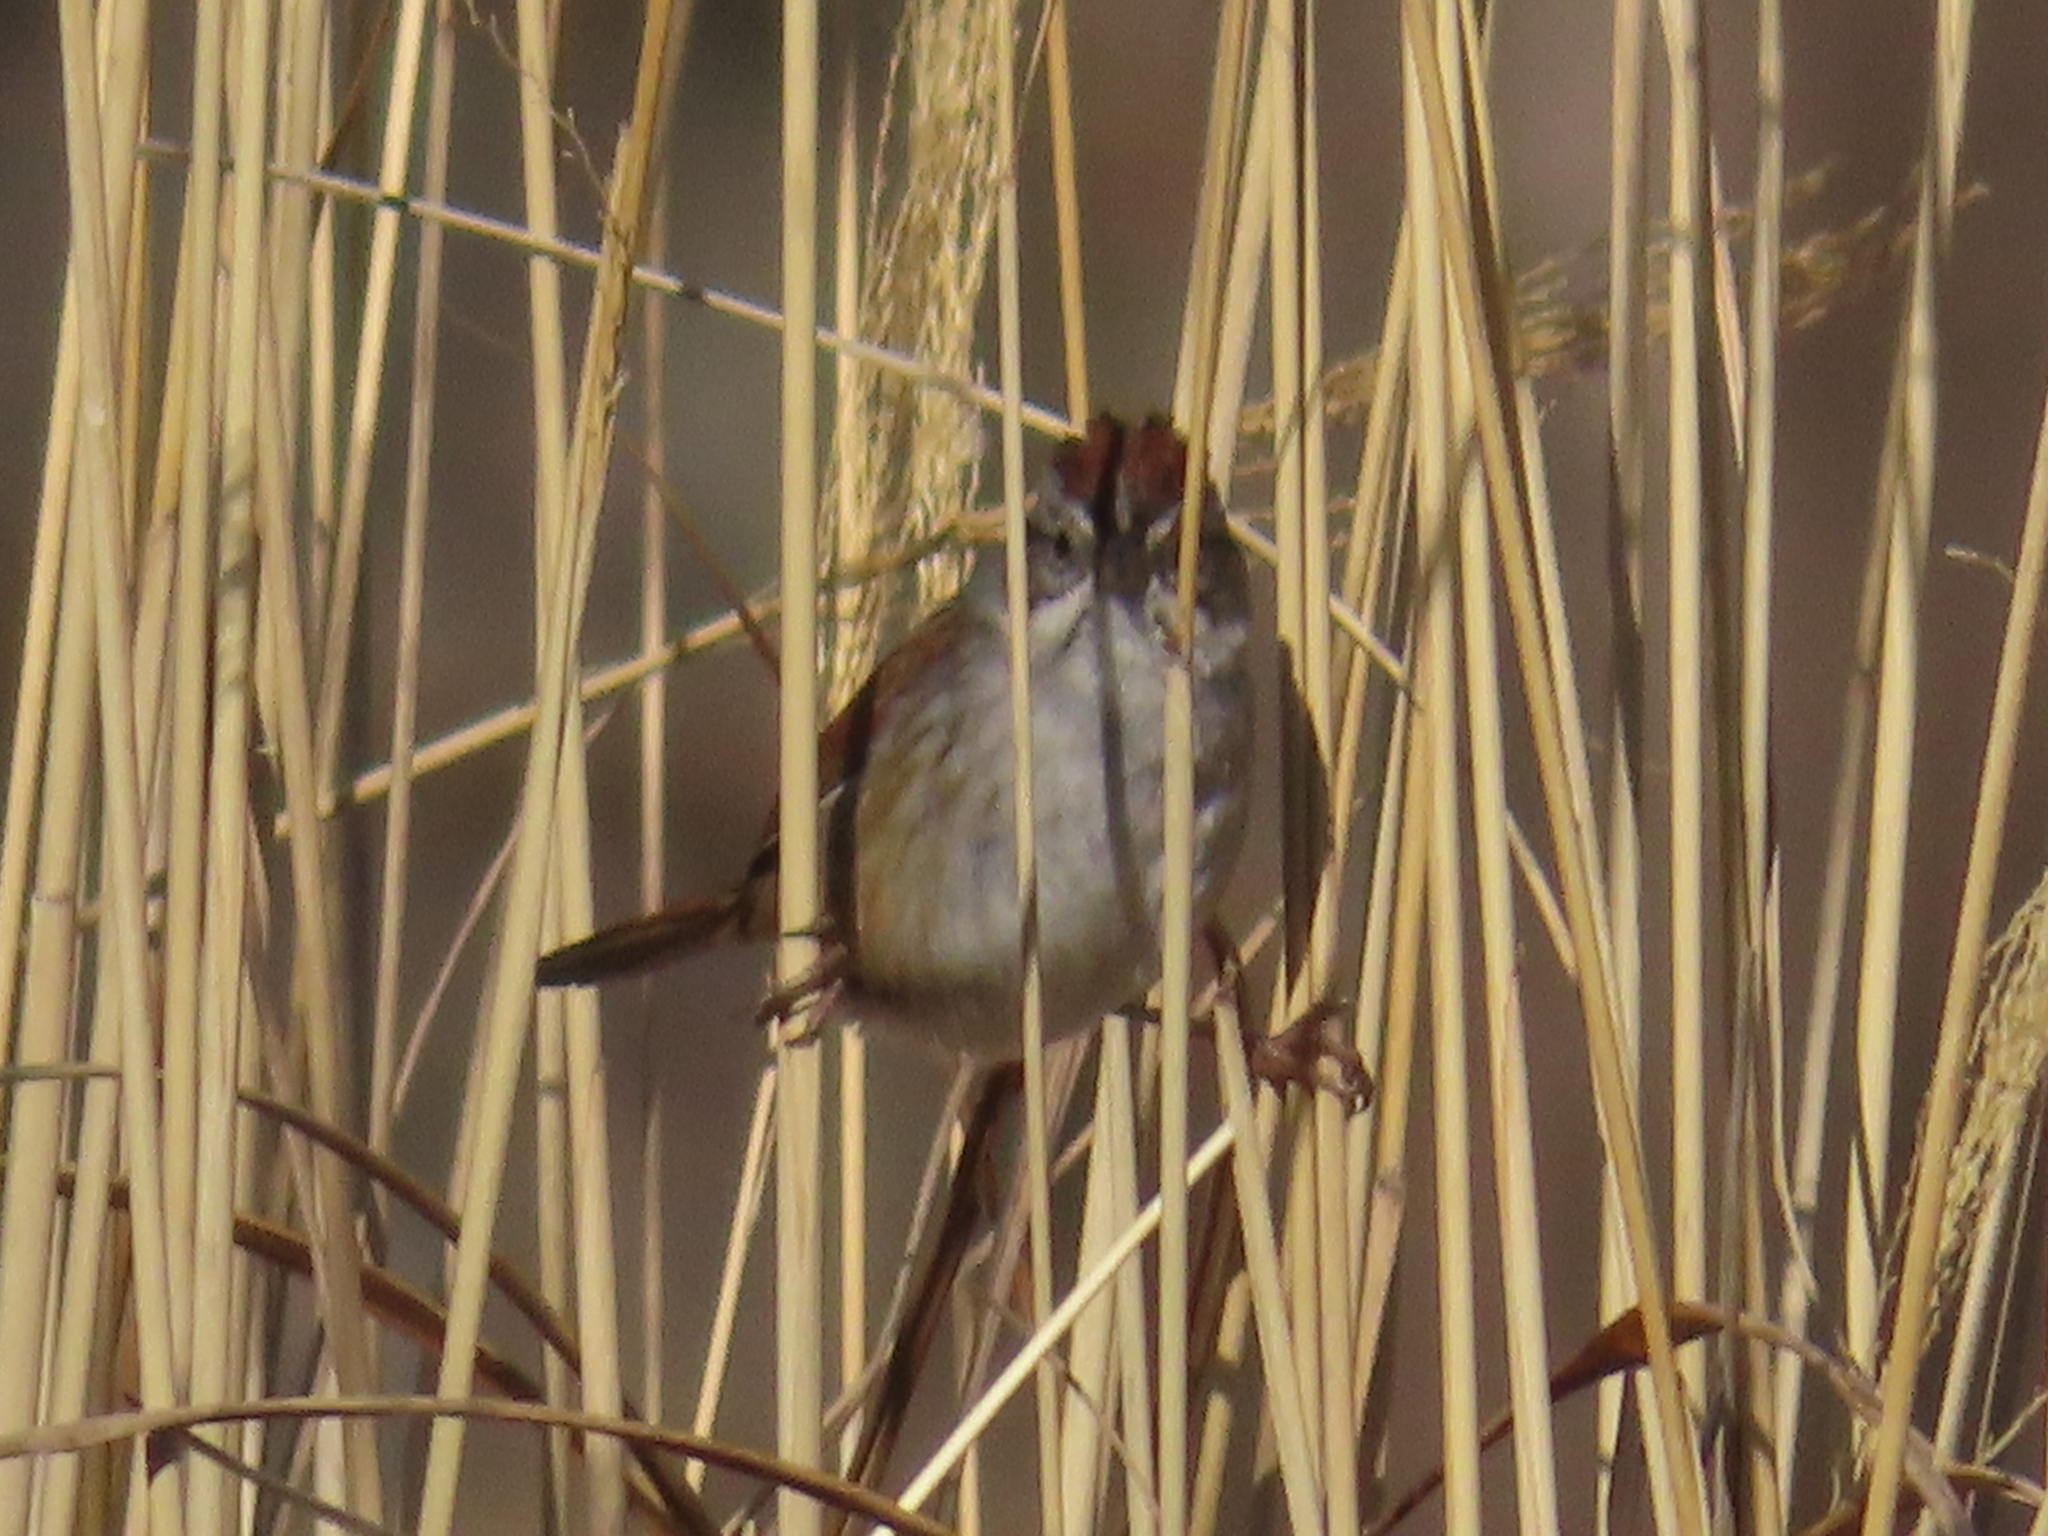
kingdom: Animalia
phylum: Chordata
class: Aves
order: Passeriformes
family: Passerellidae
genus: Melospiza
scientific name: Melospiza georgiana
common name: Swamp sparrow
